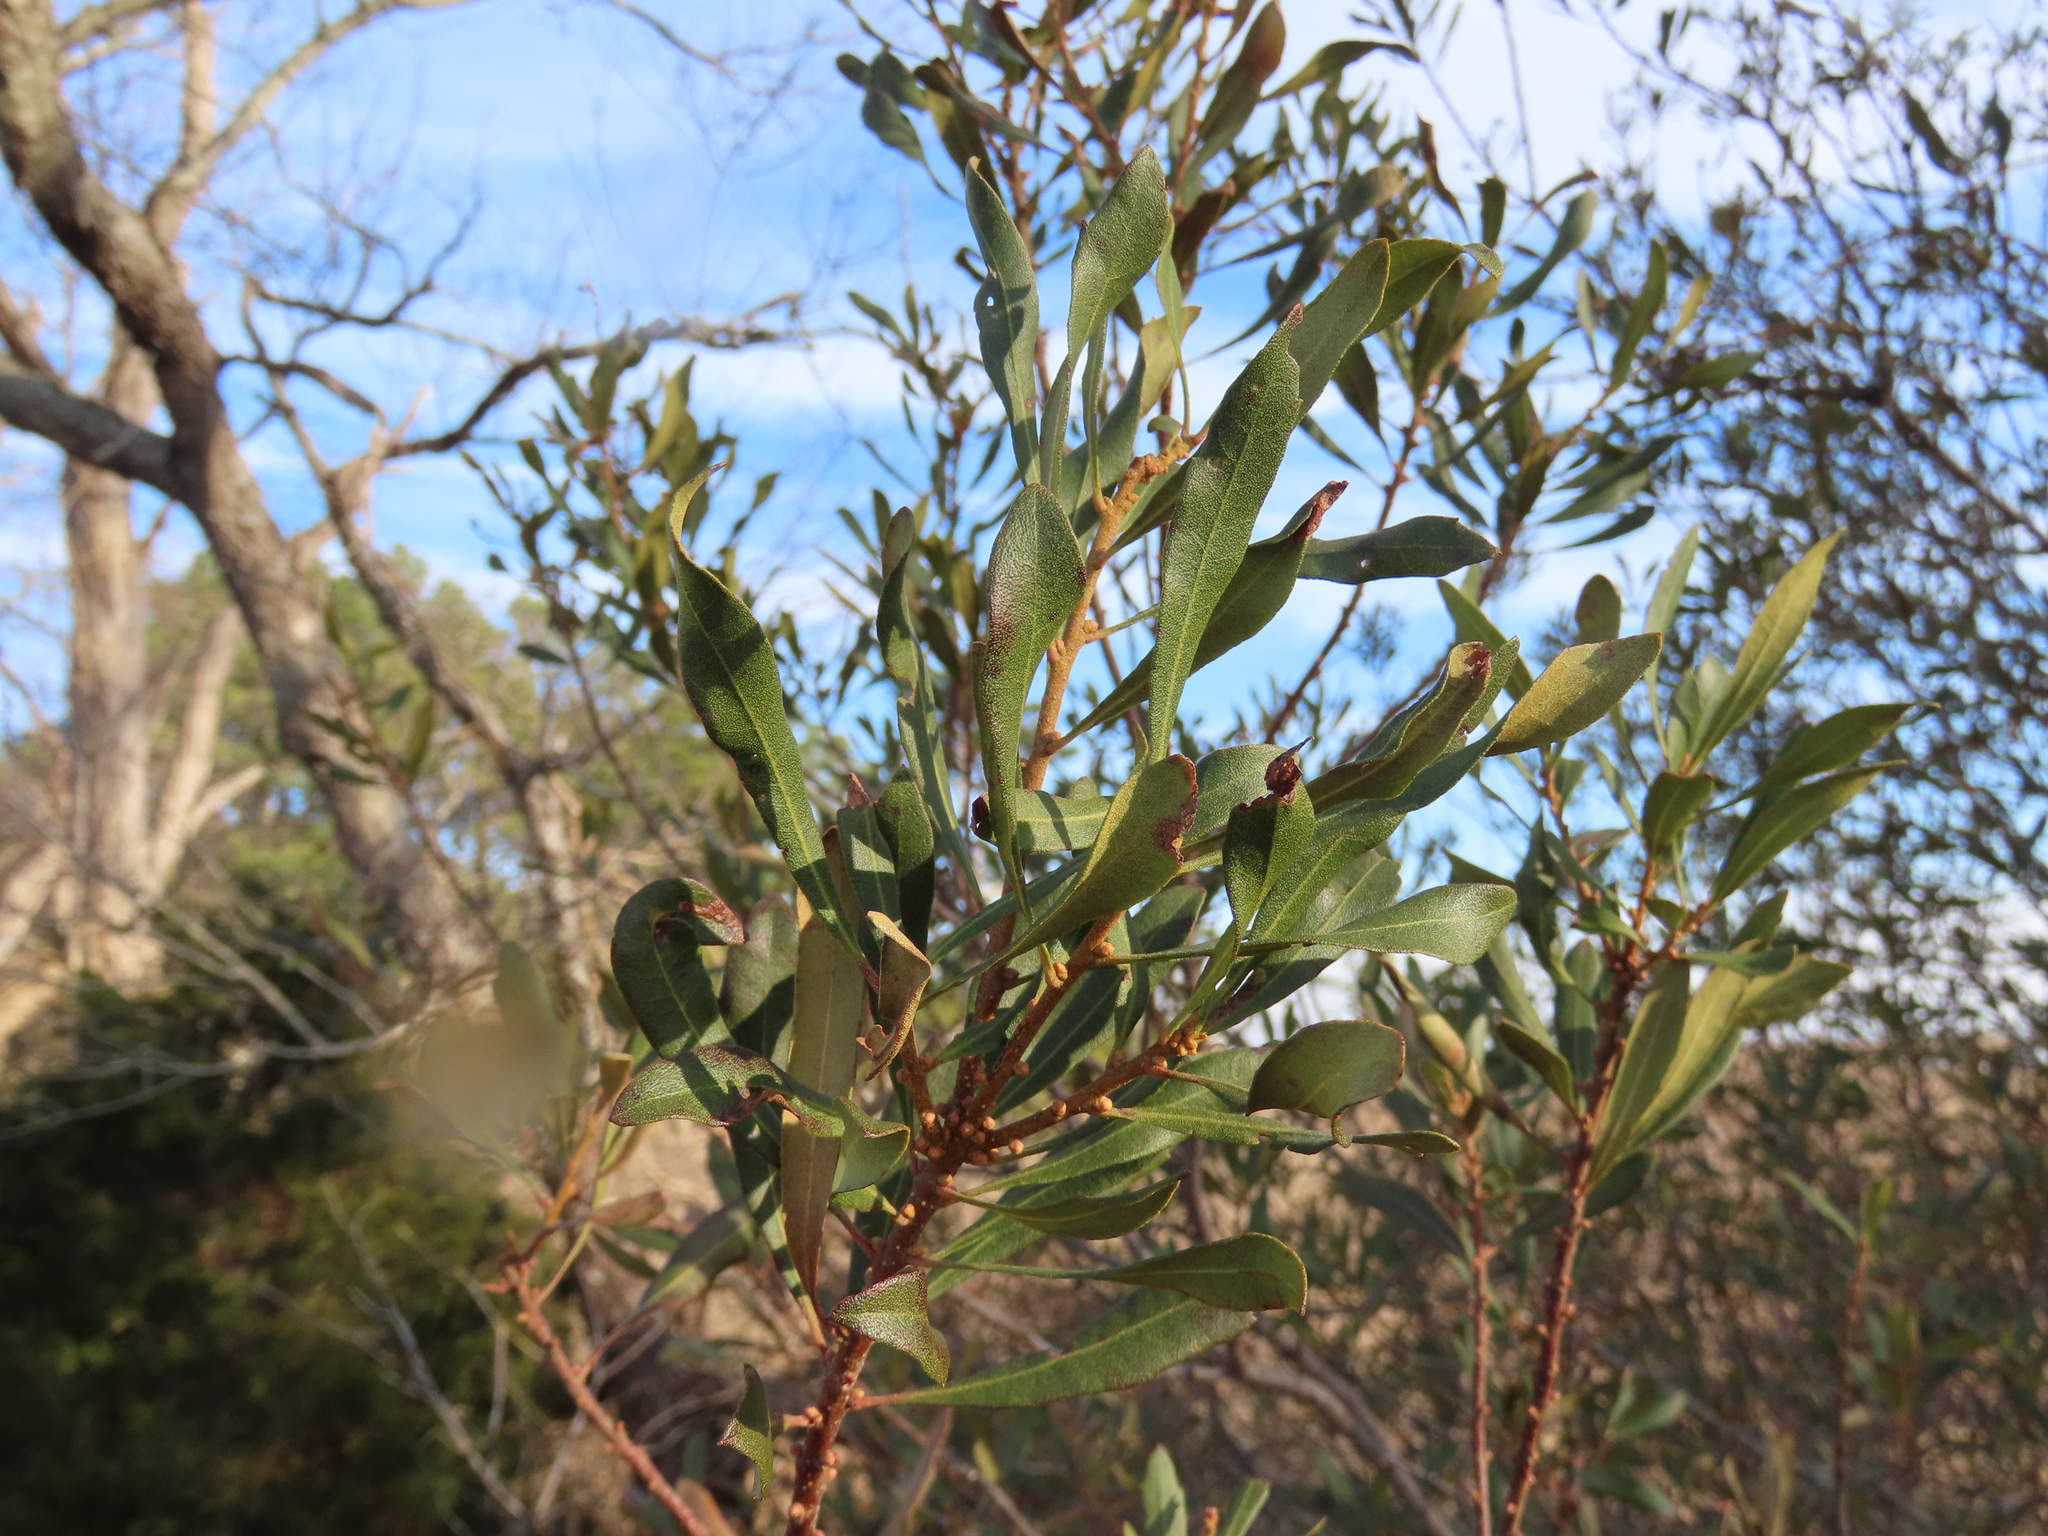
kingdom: Plantae
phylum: Tracheophyta
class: Magnoliopsida
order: Fagales
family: Myricaceae
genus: Morella
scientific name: Morella cerifera
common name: Wax myrtle
